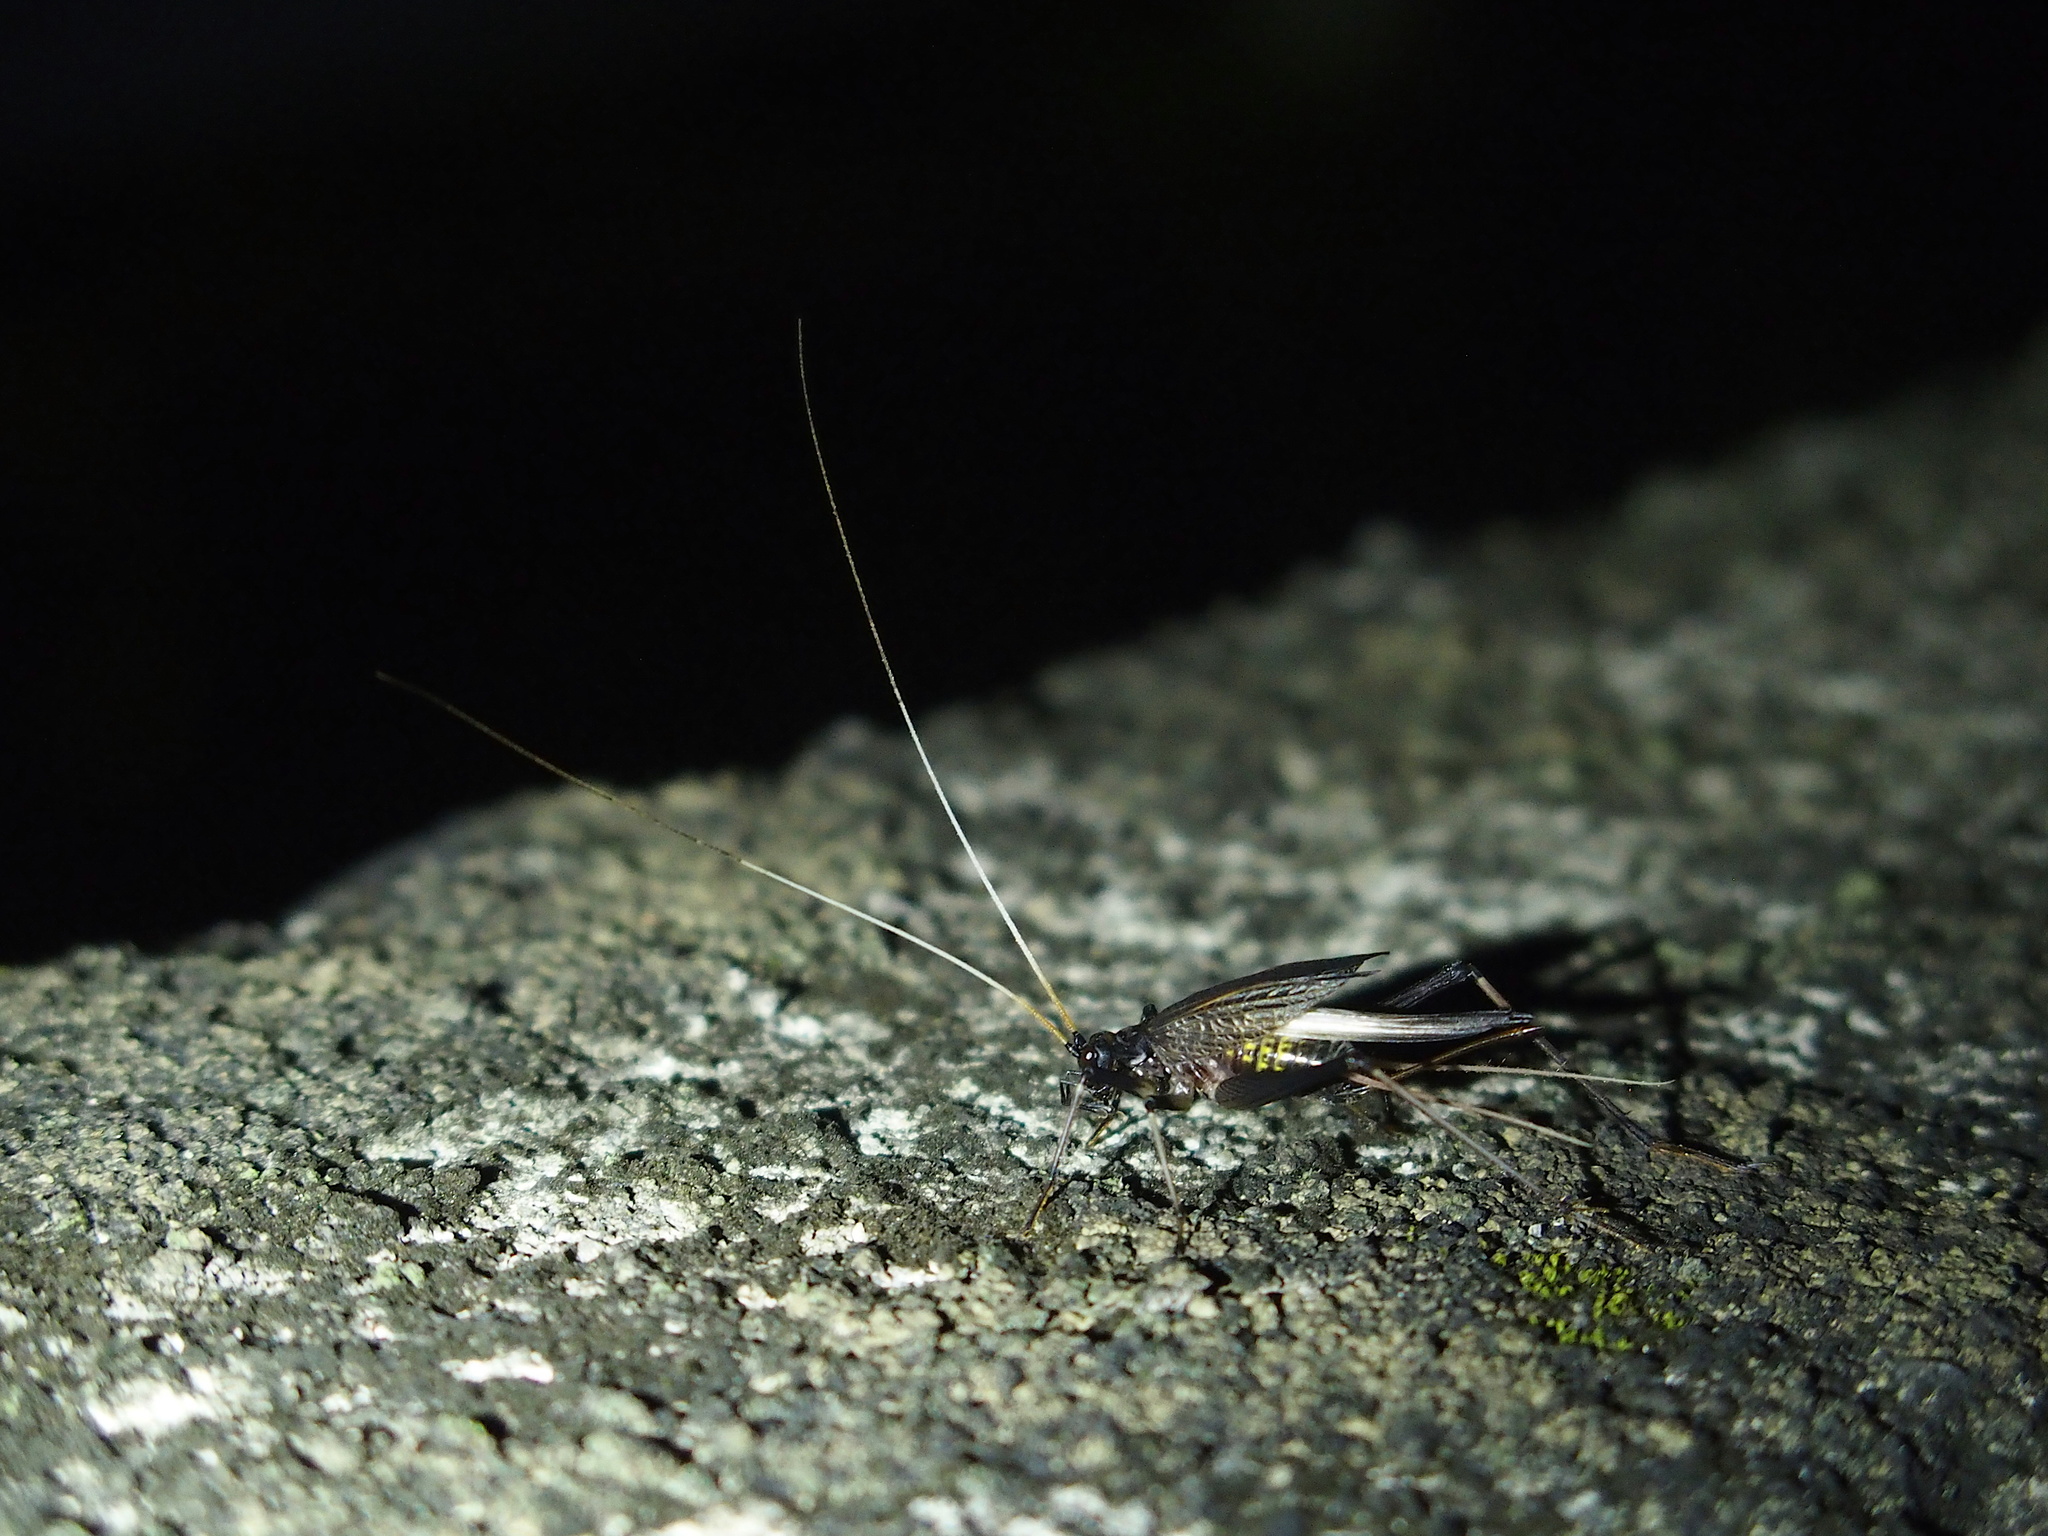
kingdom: Animalia
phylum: Arthropoda
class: Insecta
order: Orthoptera
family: Phalangopsidae
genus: Meloimorpha
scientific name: Meloimorpha japonica
